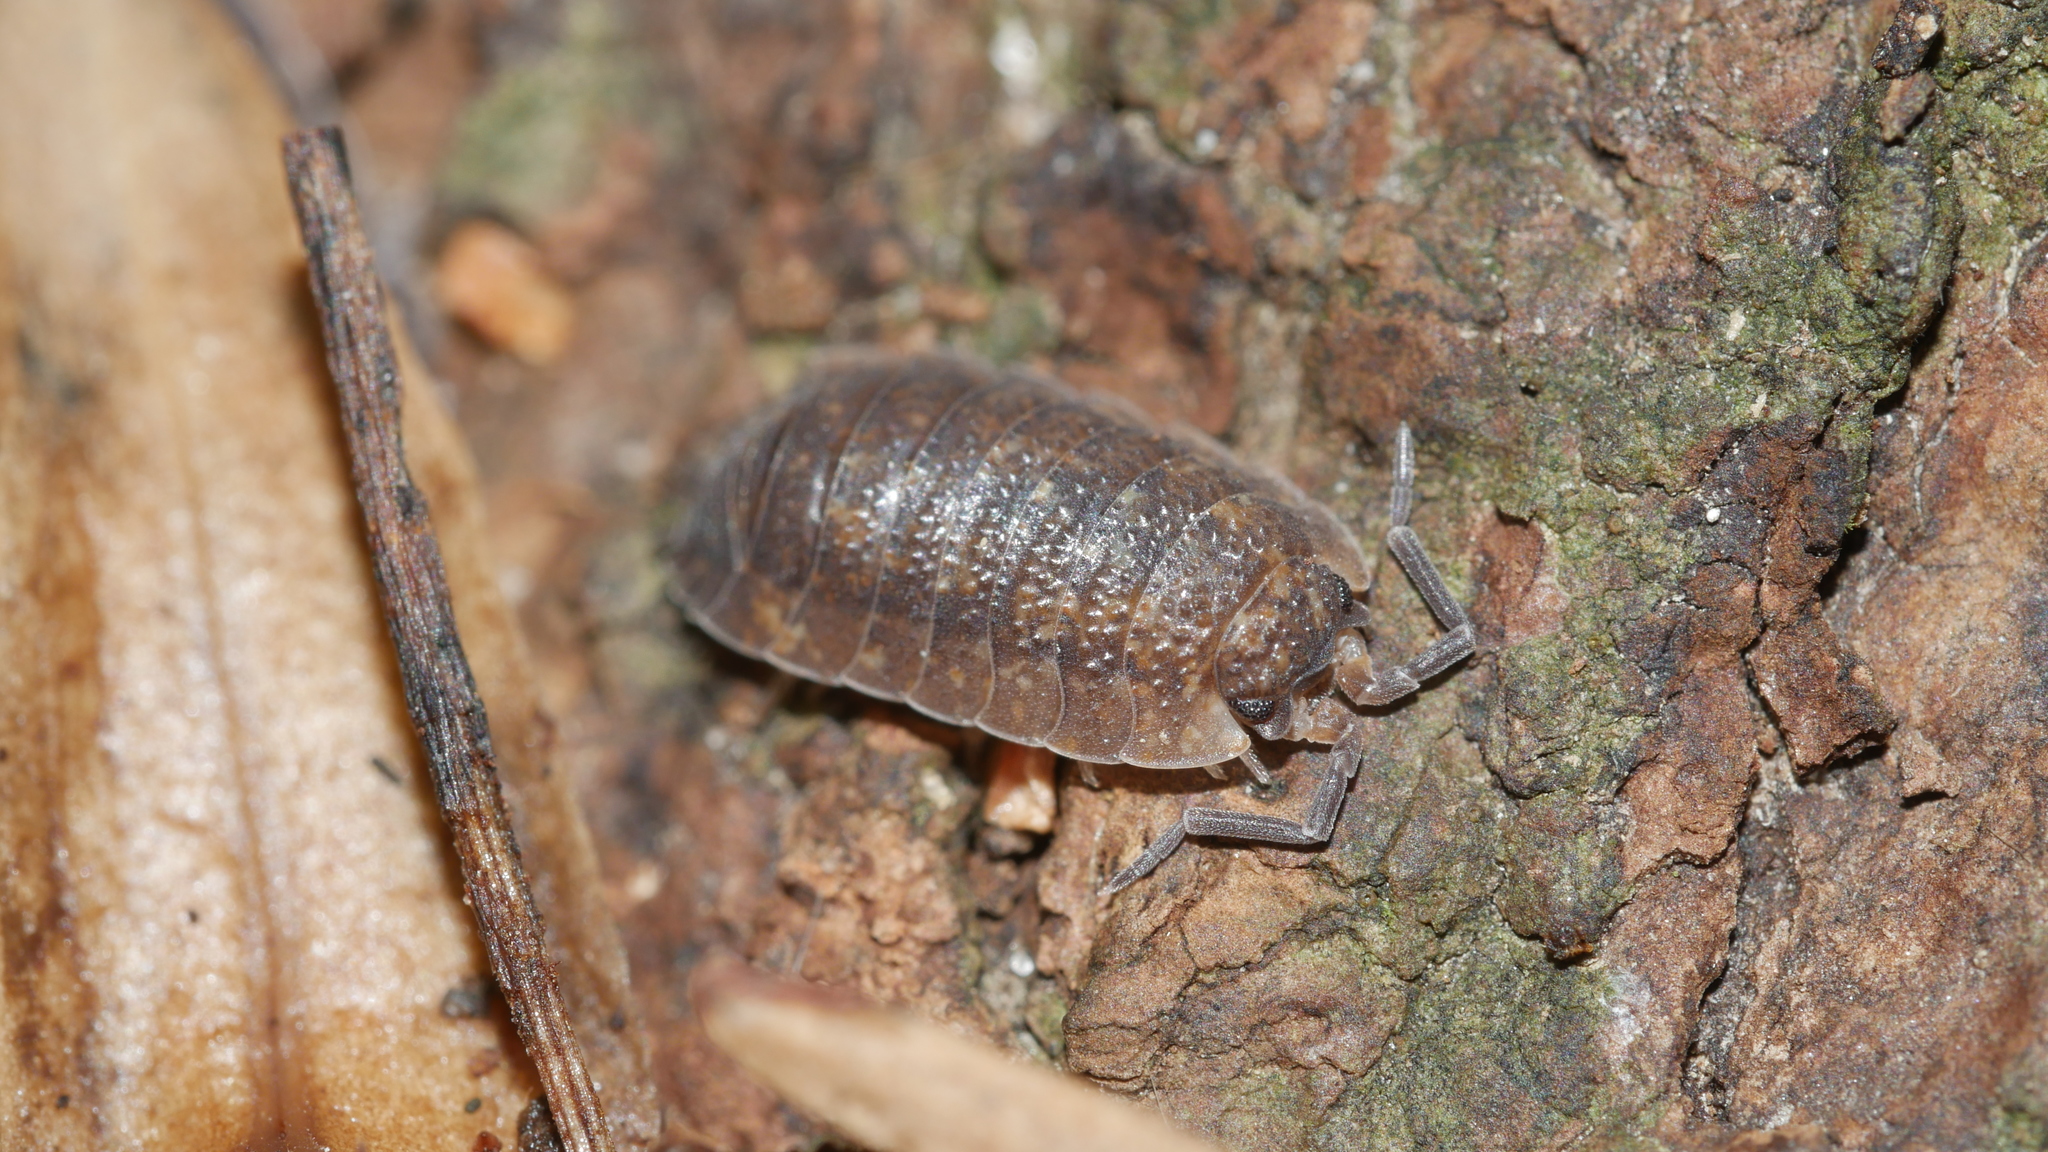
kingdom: Animalia
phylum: Arthropoda
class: Malacostraca
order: Isopoda
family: Porcellionidae
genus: Porcellio
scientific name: Porcellio scaber
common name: Common rough woodlouse
